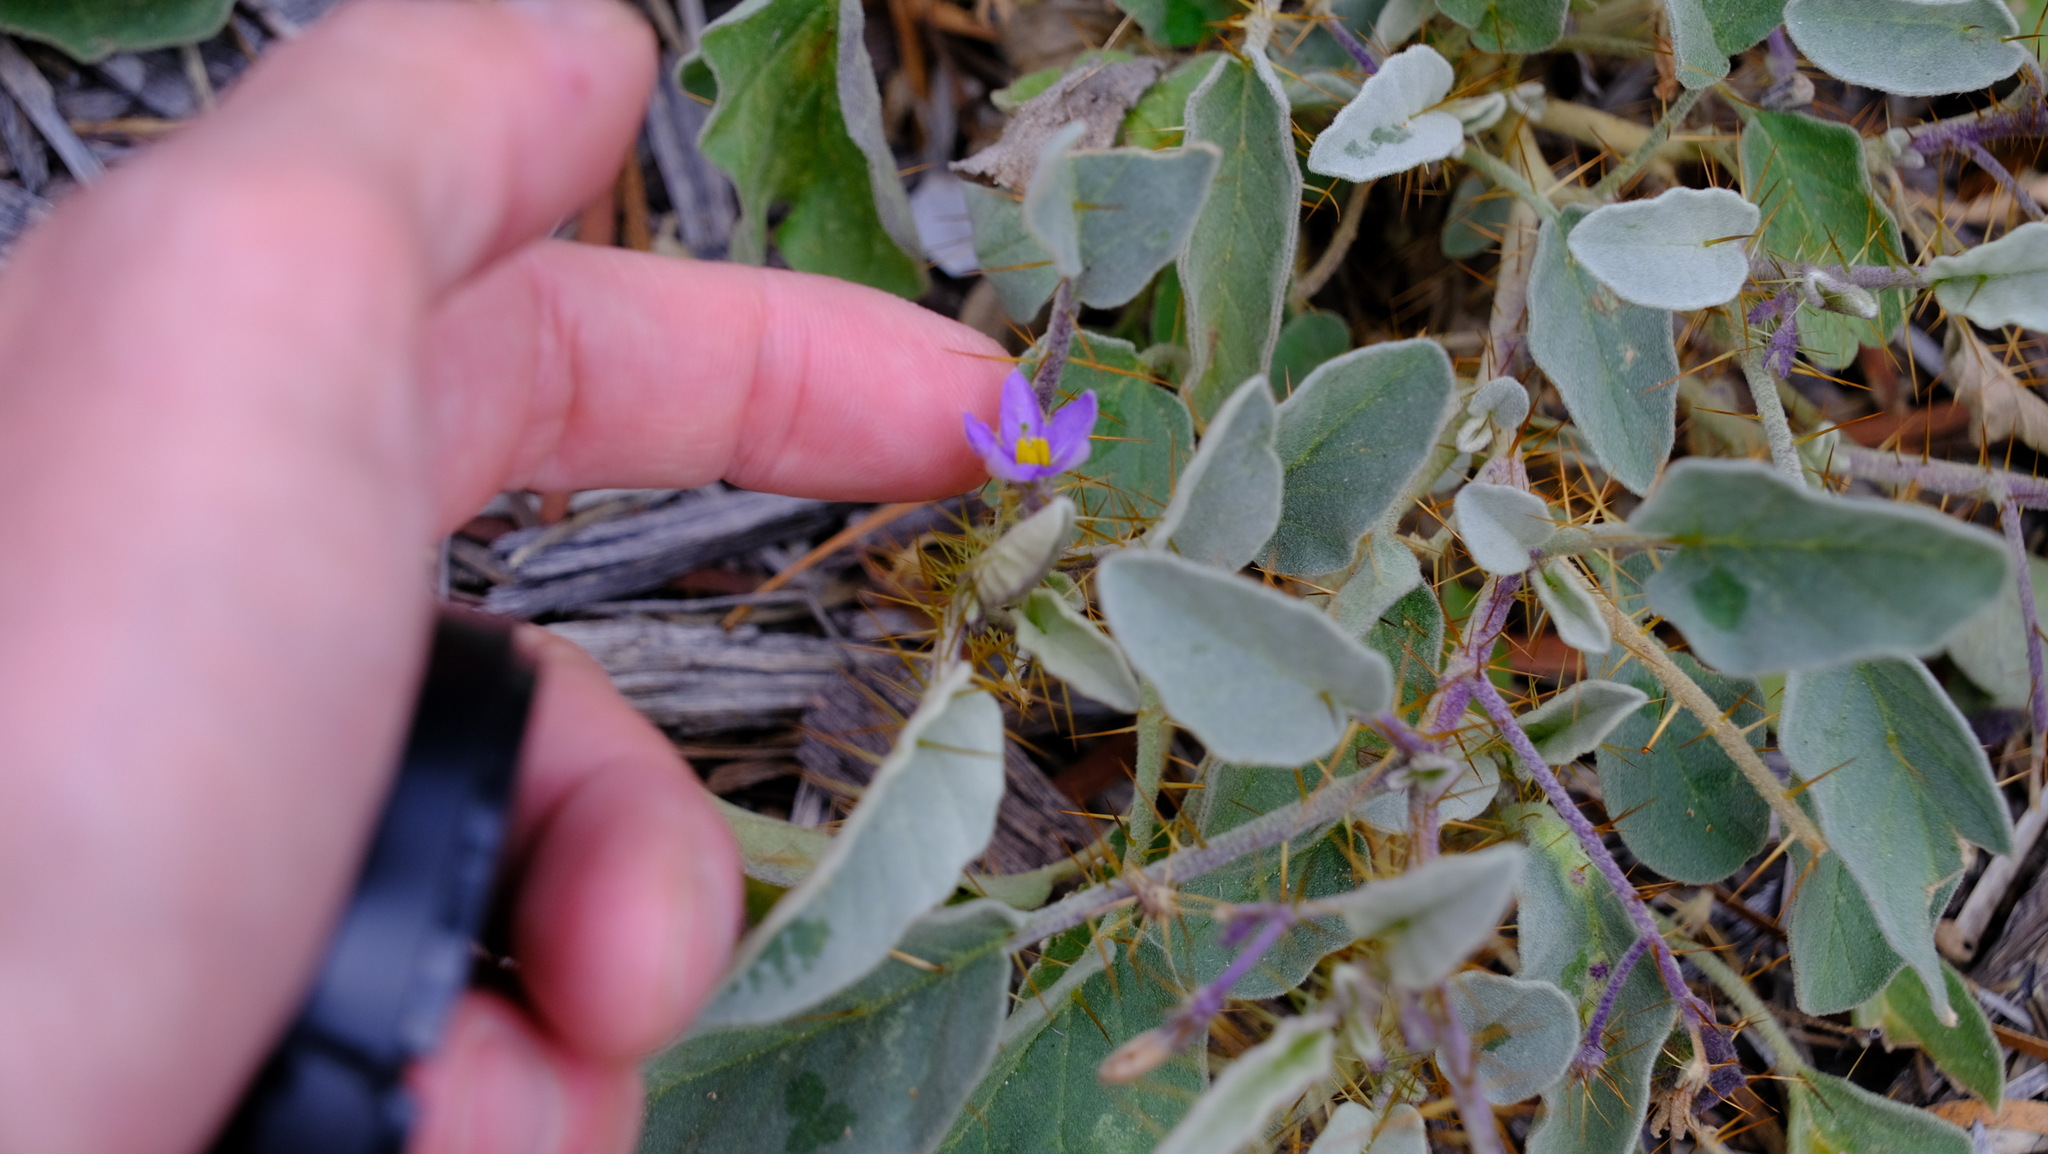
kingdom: Plantae
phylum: Tracheophyta
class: Magnoliopsida
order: Solanales
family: Solanaceae
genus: Solanum
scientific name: Solanum cleistogamum
